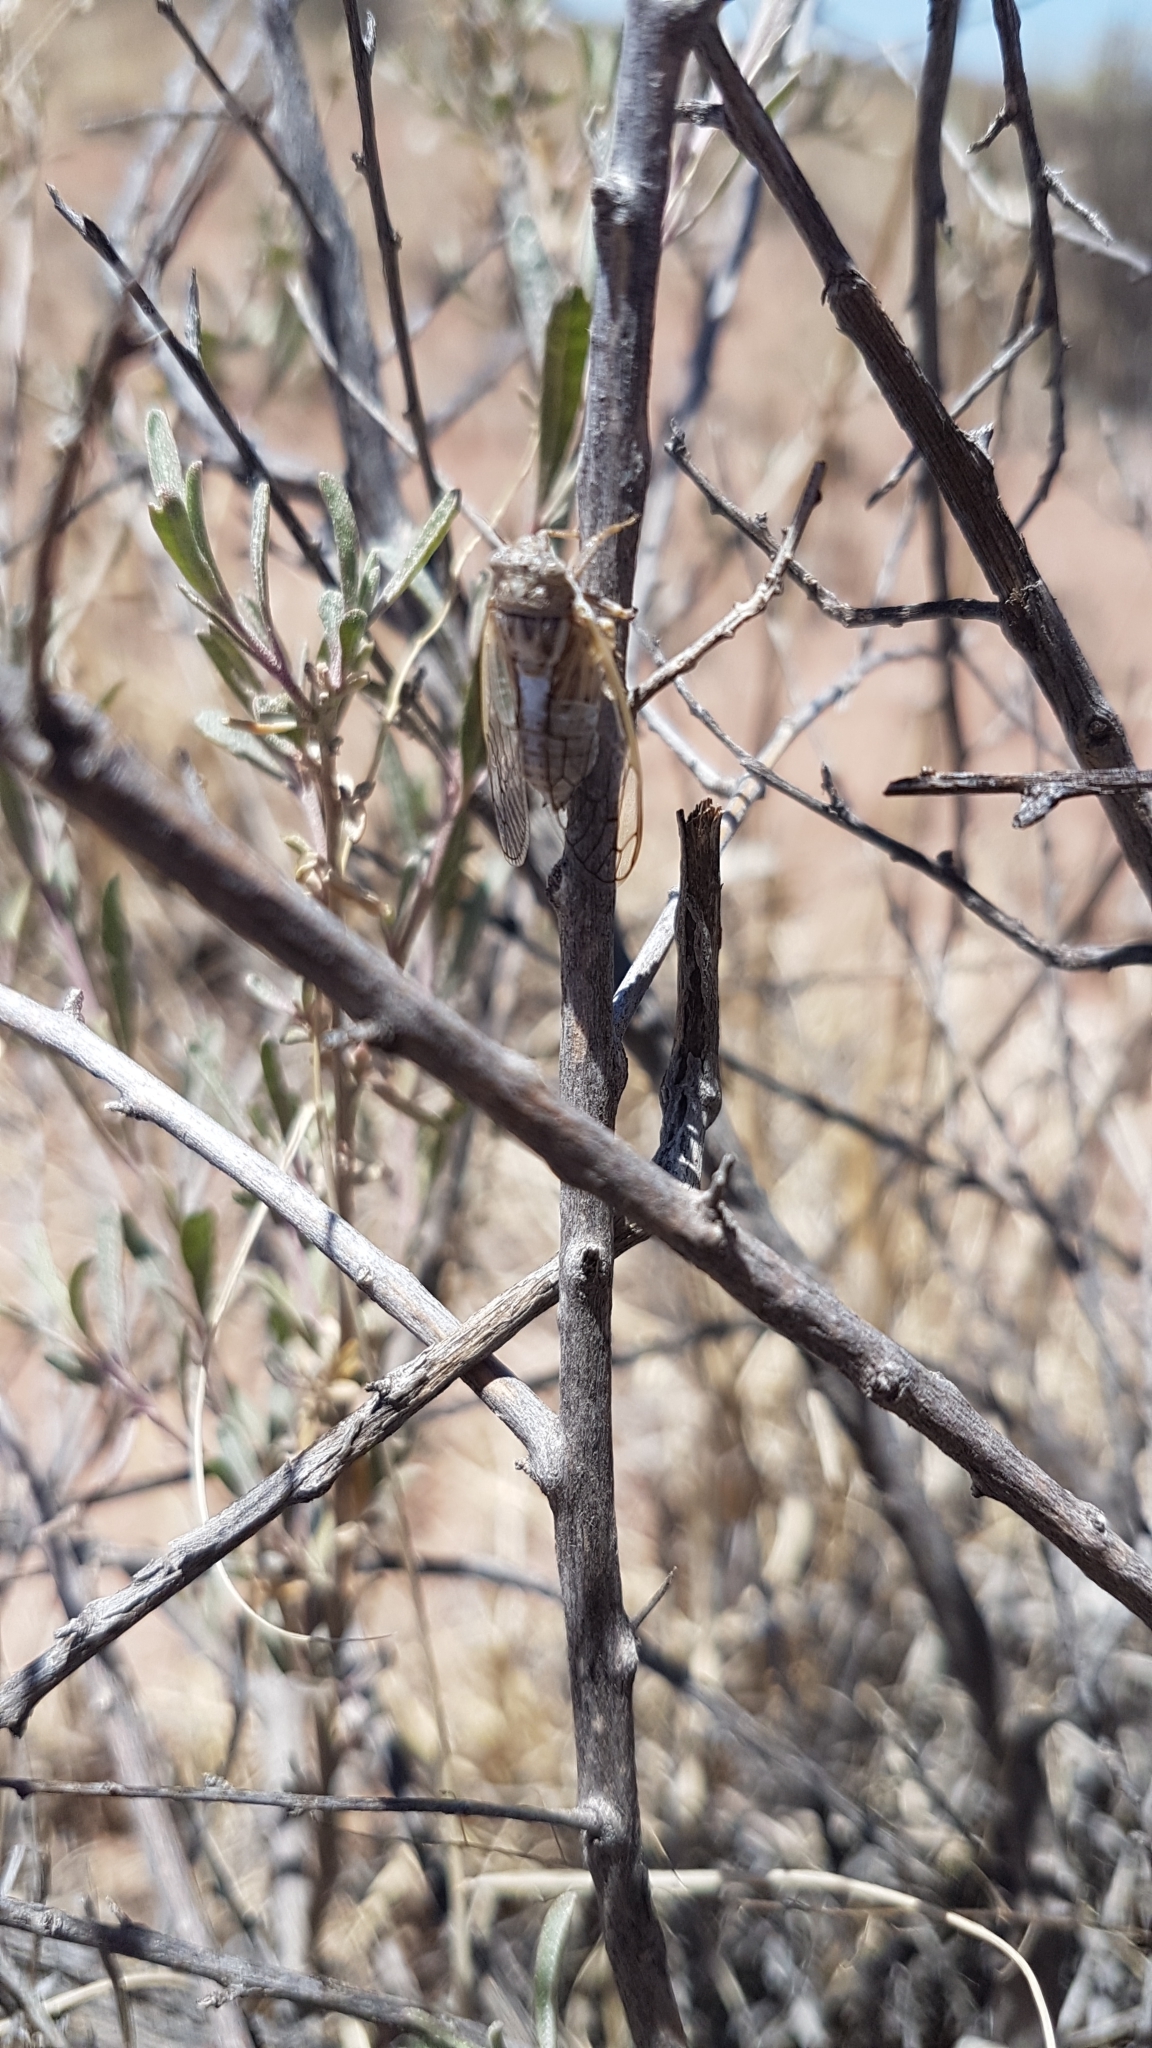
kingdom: Animalia
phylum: Arthropoda
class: Insecta
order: Hemiptera
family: Cicadidae
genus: Beameria
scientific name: Beameria venosa
